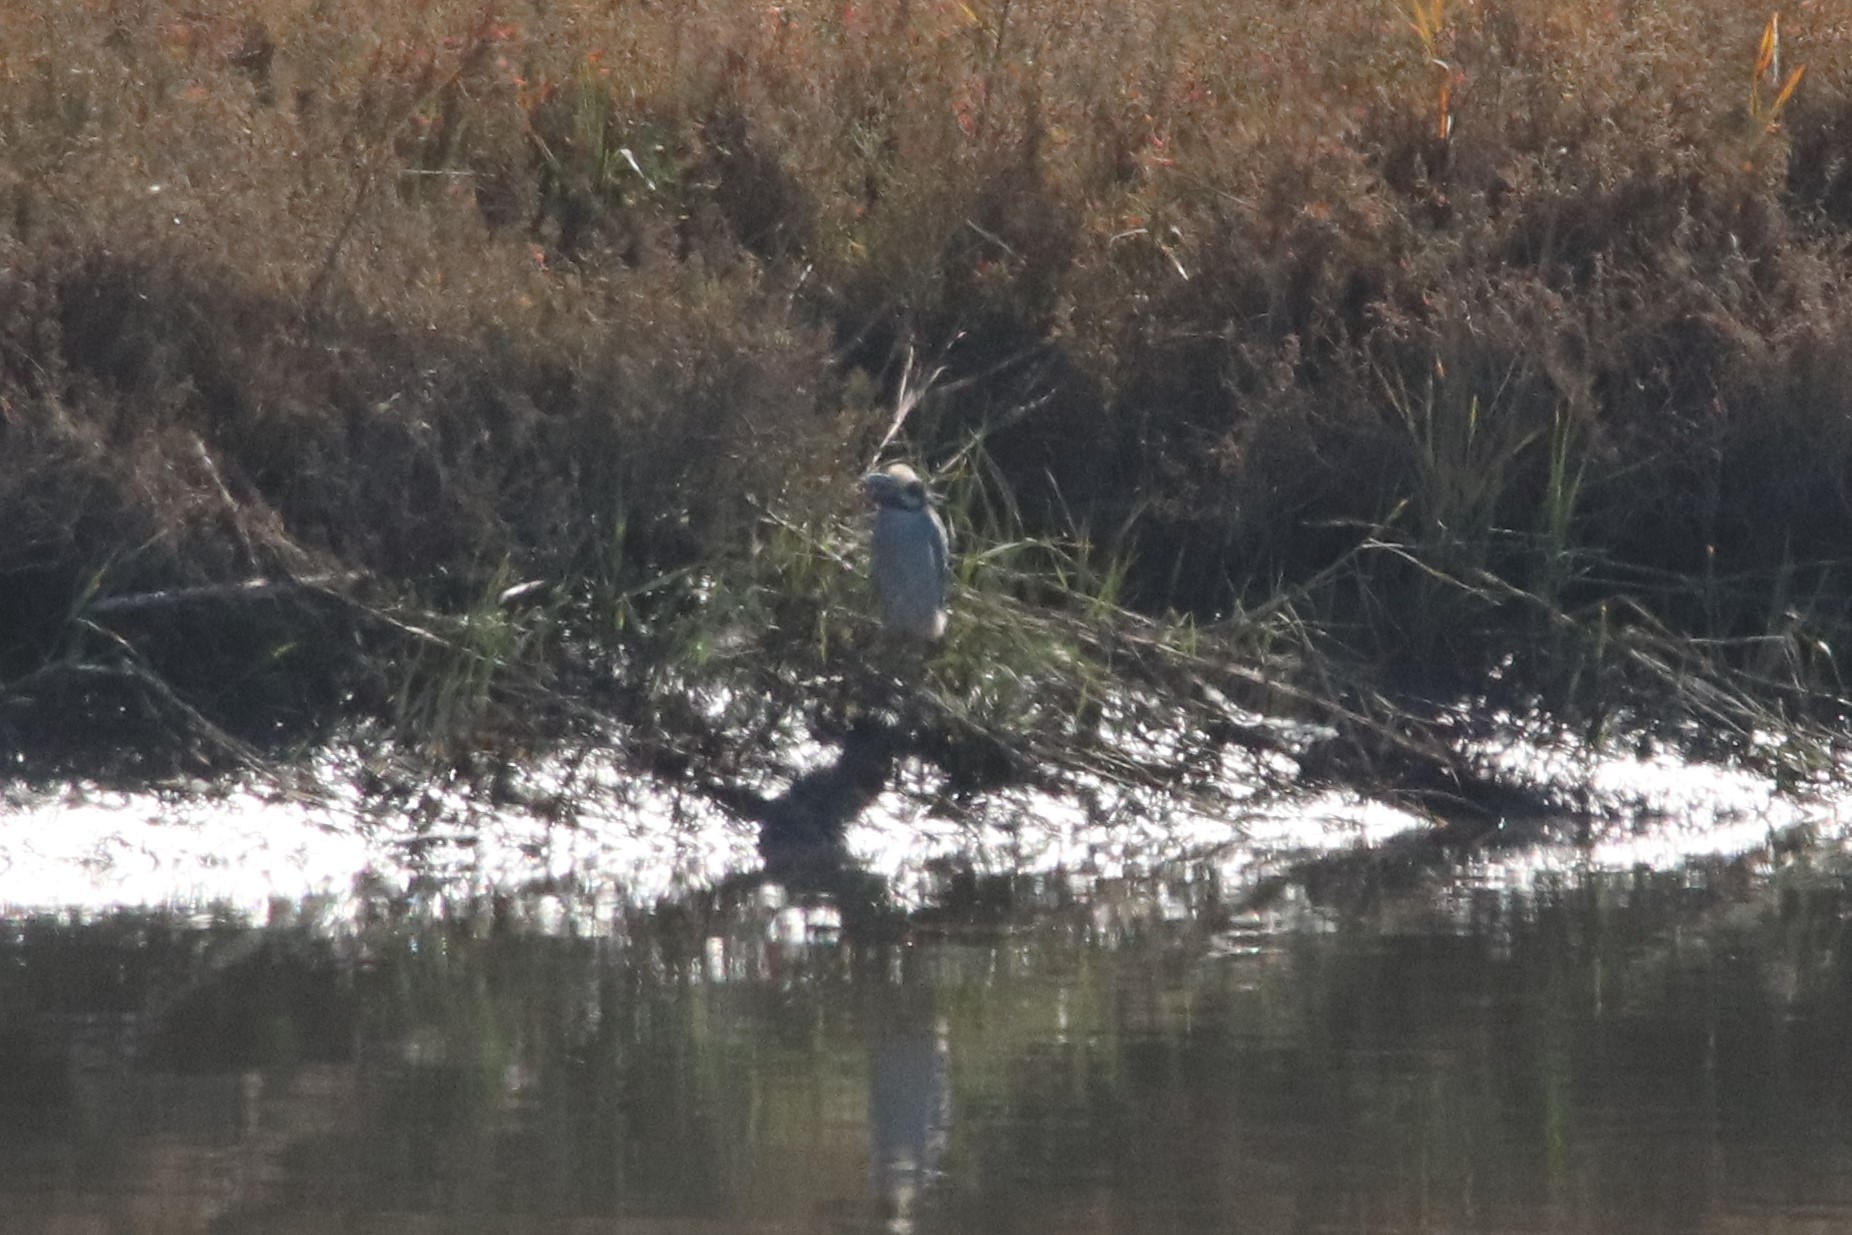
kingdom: Animalia
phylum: Chordata
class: Aves
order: Pelecaniformes
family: Ardeidae
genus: Nyctanassa
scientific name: Nyctanassa violacea
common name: Yellow-crowned night heron
